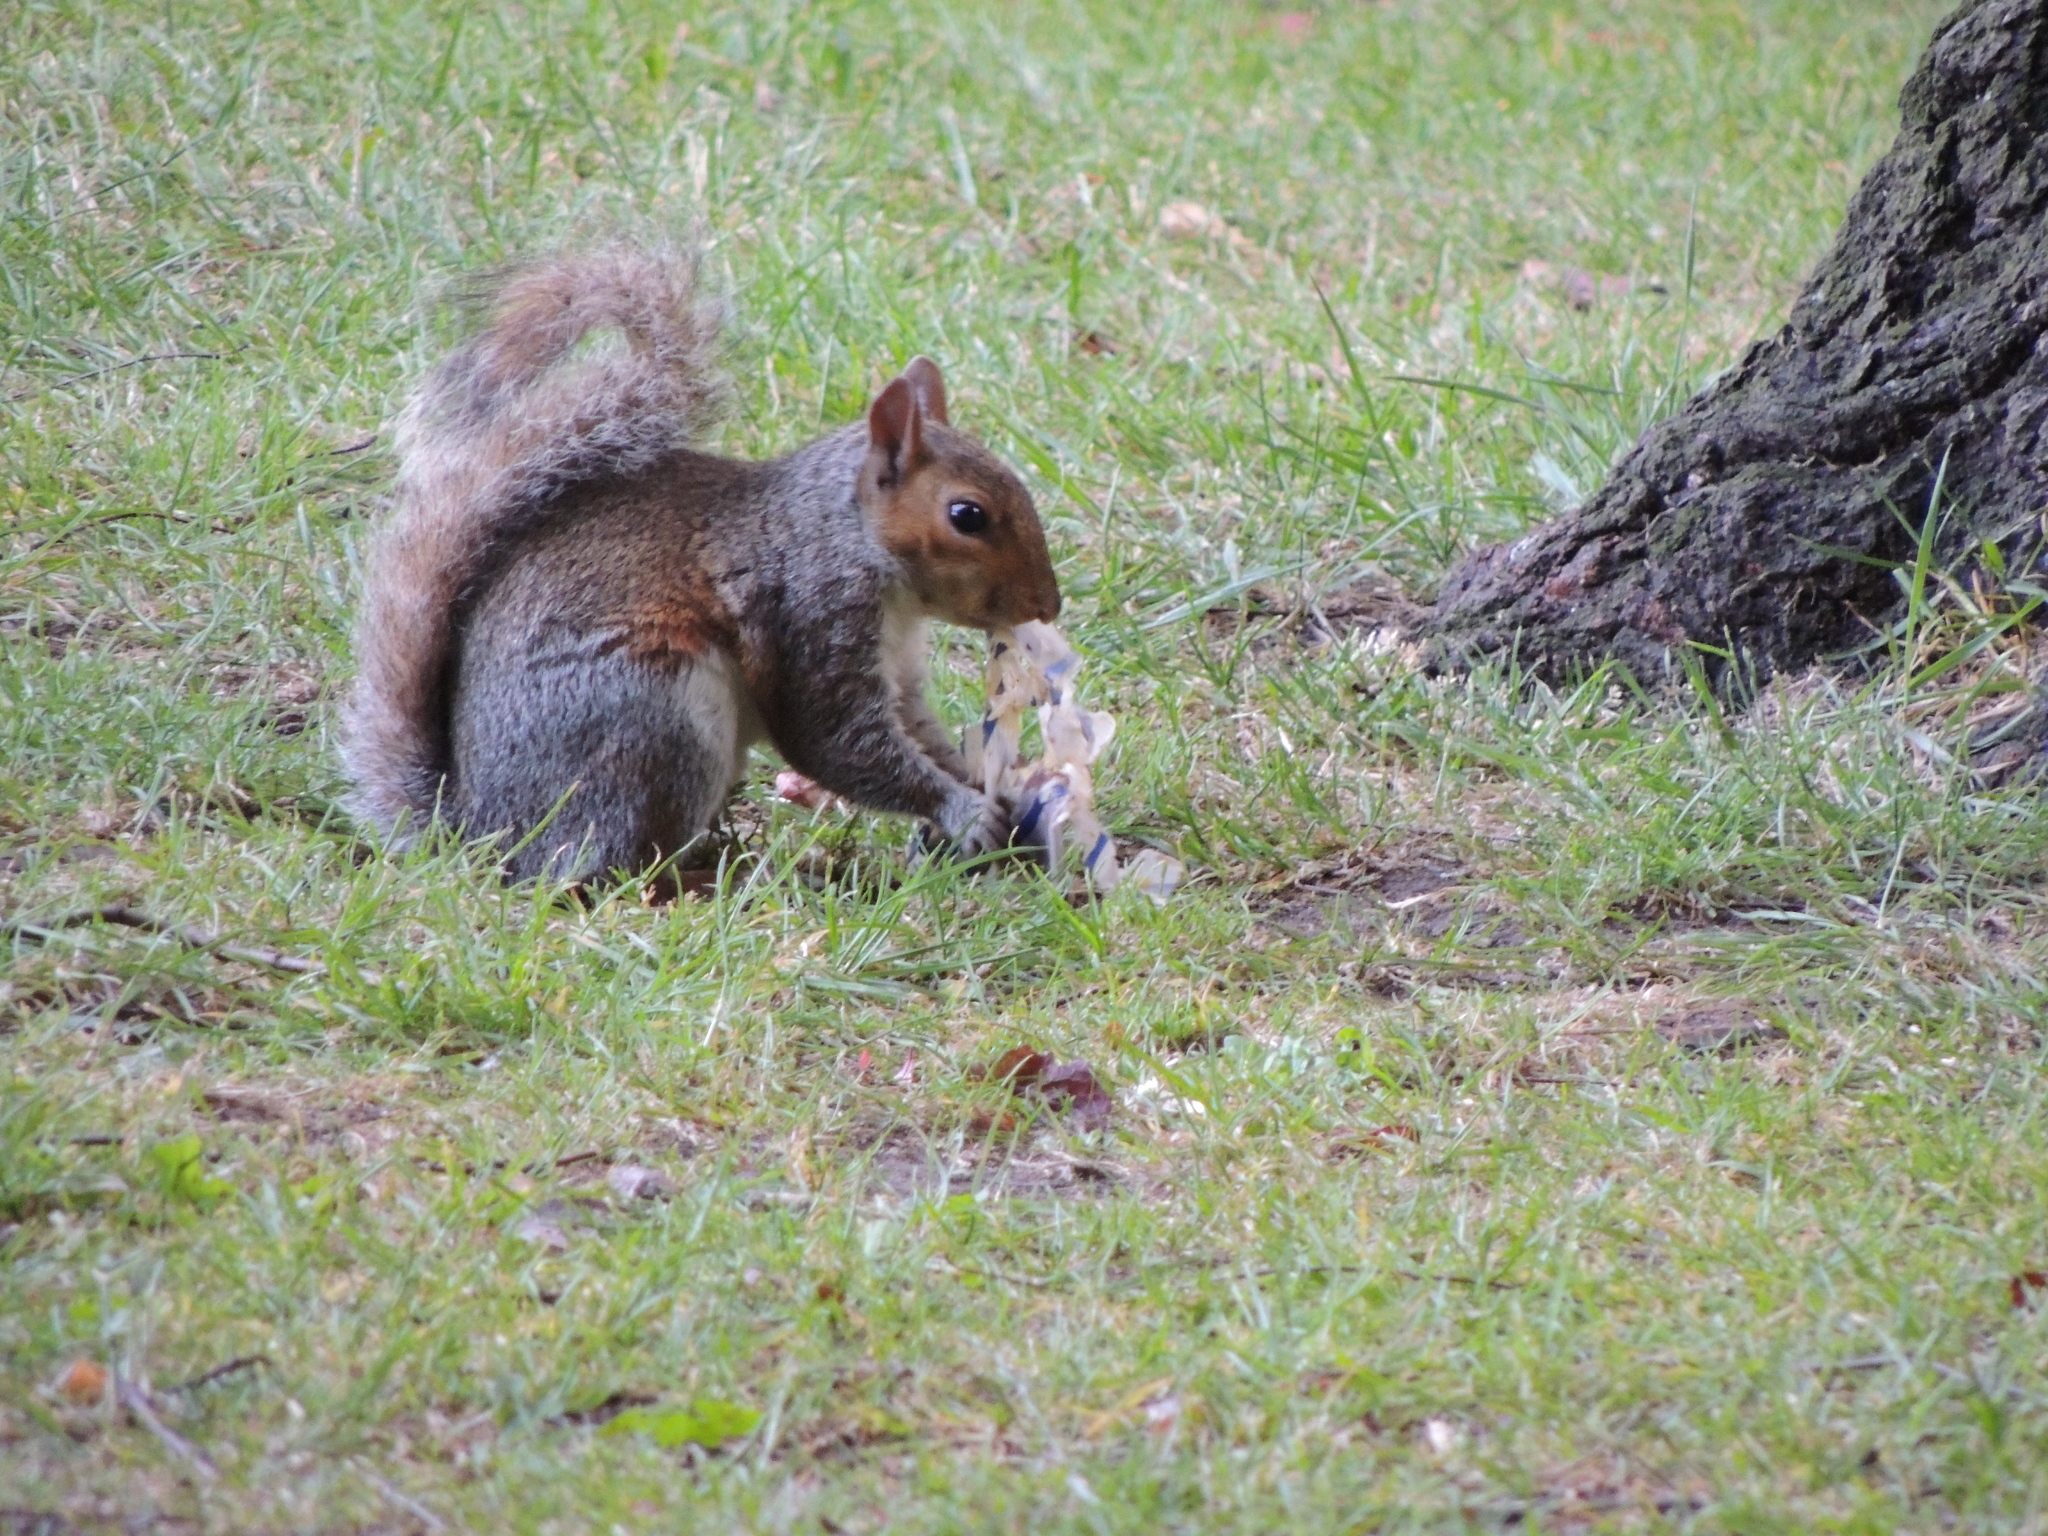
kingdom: Animalia
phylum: Chordata
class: Mammalia
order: Rodentia
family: Sciuridae
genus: Sciurus
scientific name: Sciurus carolinensis
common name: Eastern gray squirrel
